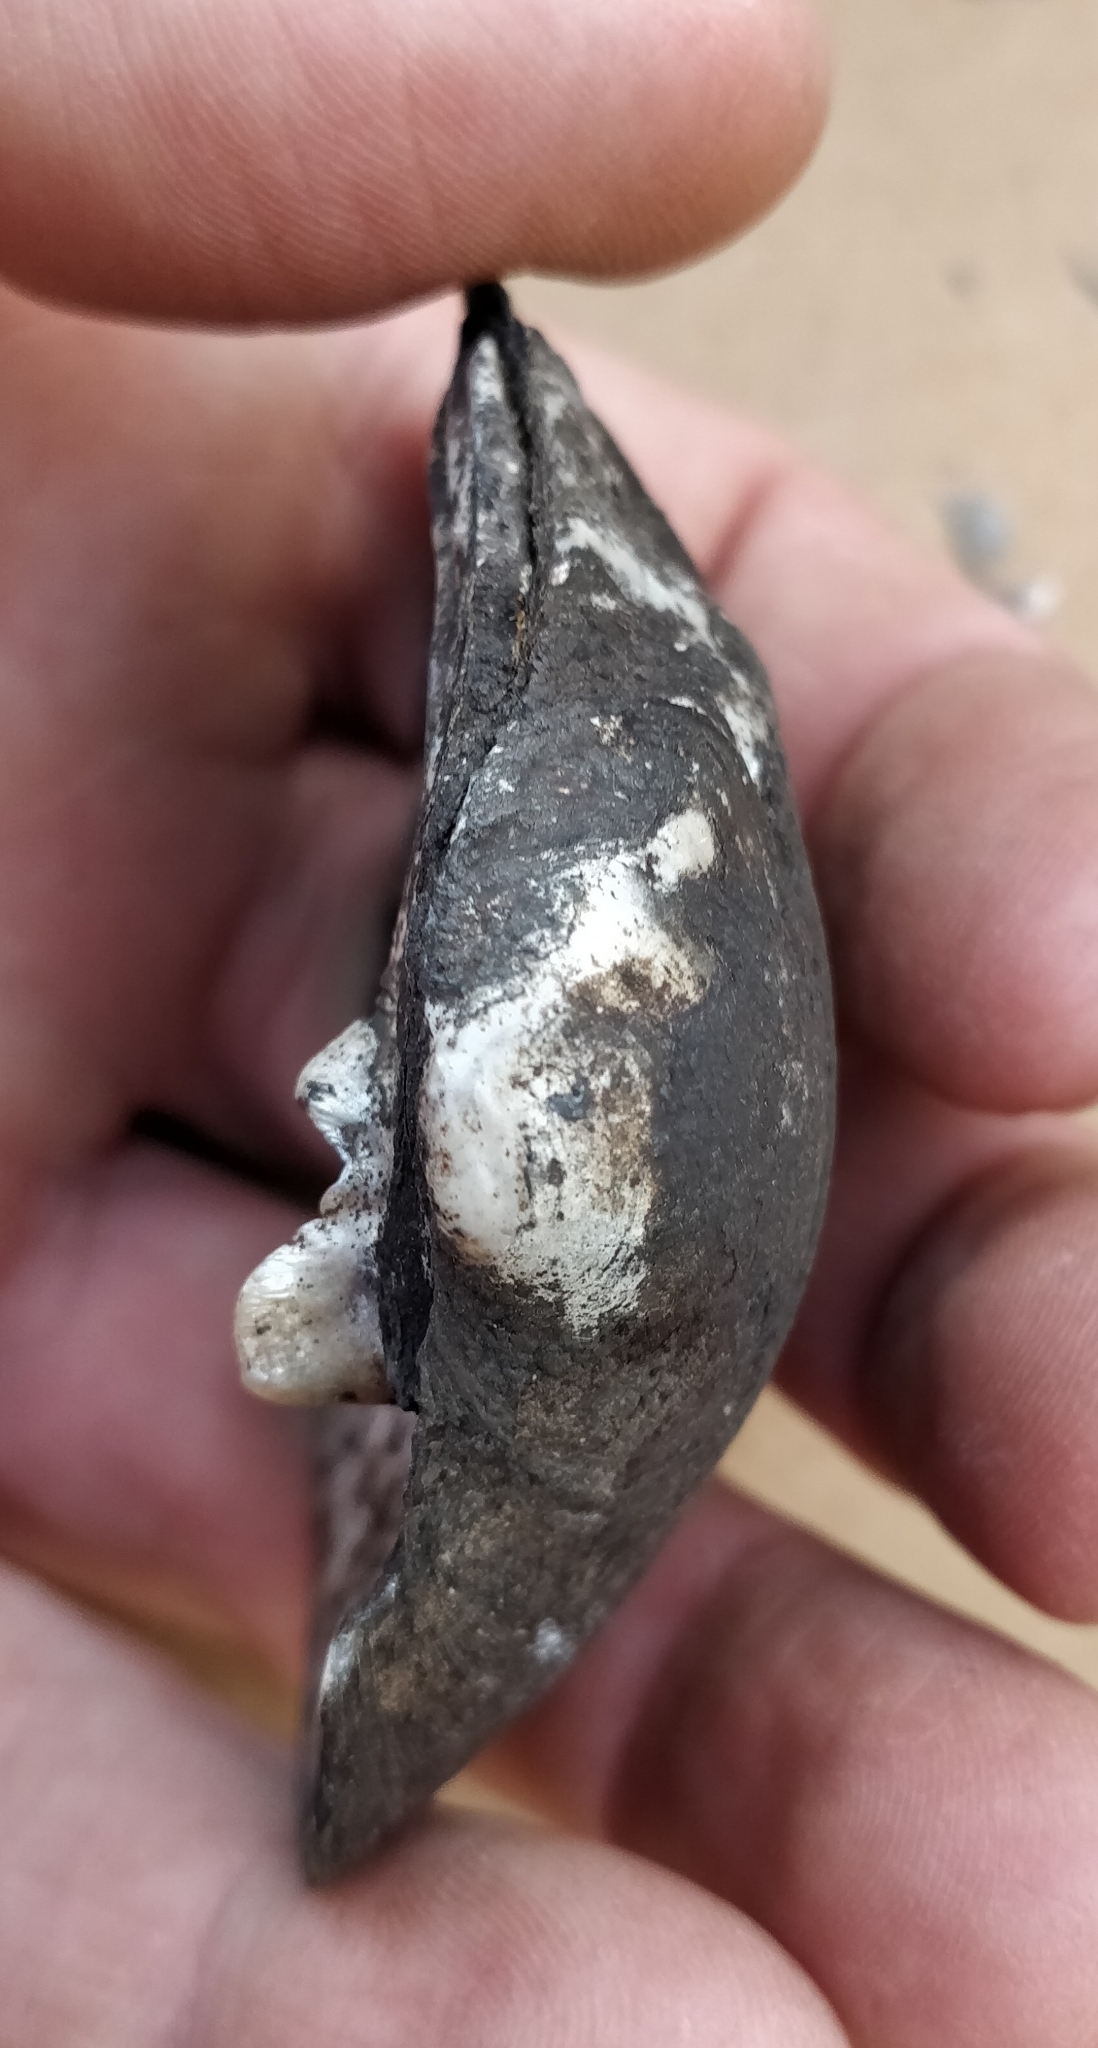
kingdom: Animalia
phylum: Mollusca
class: Bivalvia
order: Unionida
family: Unionidae
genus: Cyclonaias
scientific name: Cyclonaias pustulosa
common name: Pimpleback
